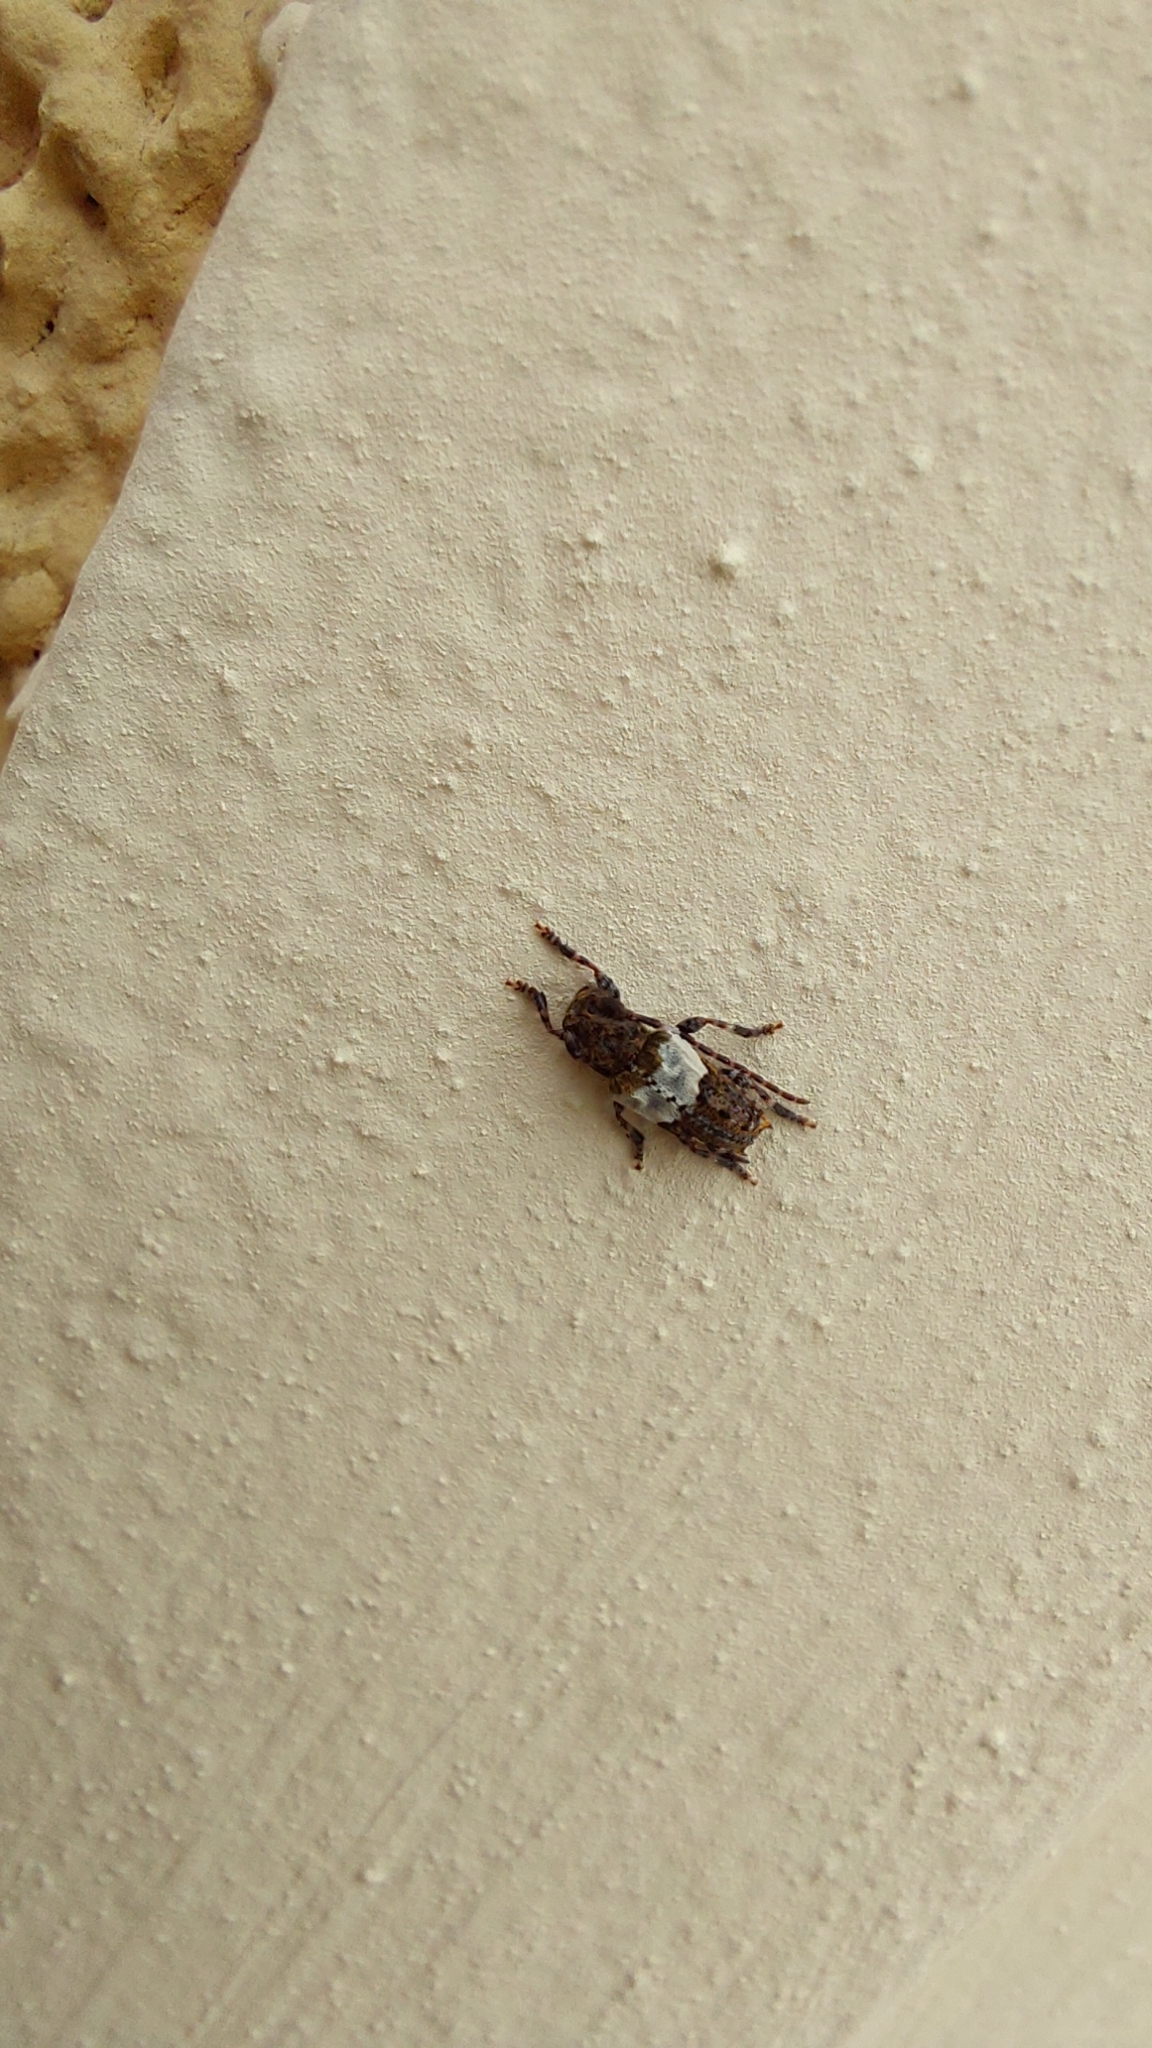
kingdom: Animalia
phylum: Arthropoda
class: Insecta
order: Coleoptera
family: Cerambycidae
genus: Pogonocherus
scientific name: Pogonocherus hispidulus
